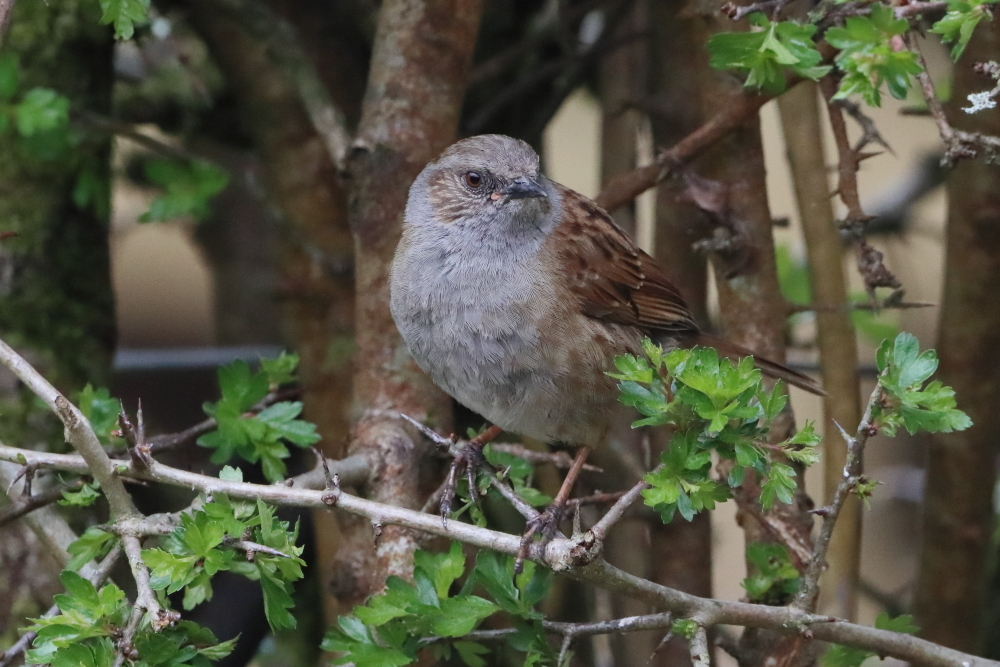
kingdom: Animalia
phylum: Chordata
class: Aves
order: Passeriformes
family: Prunellidae
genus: Prunella
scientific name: Prunella modularis
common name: Dunnock
